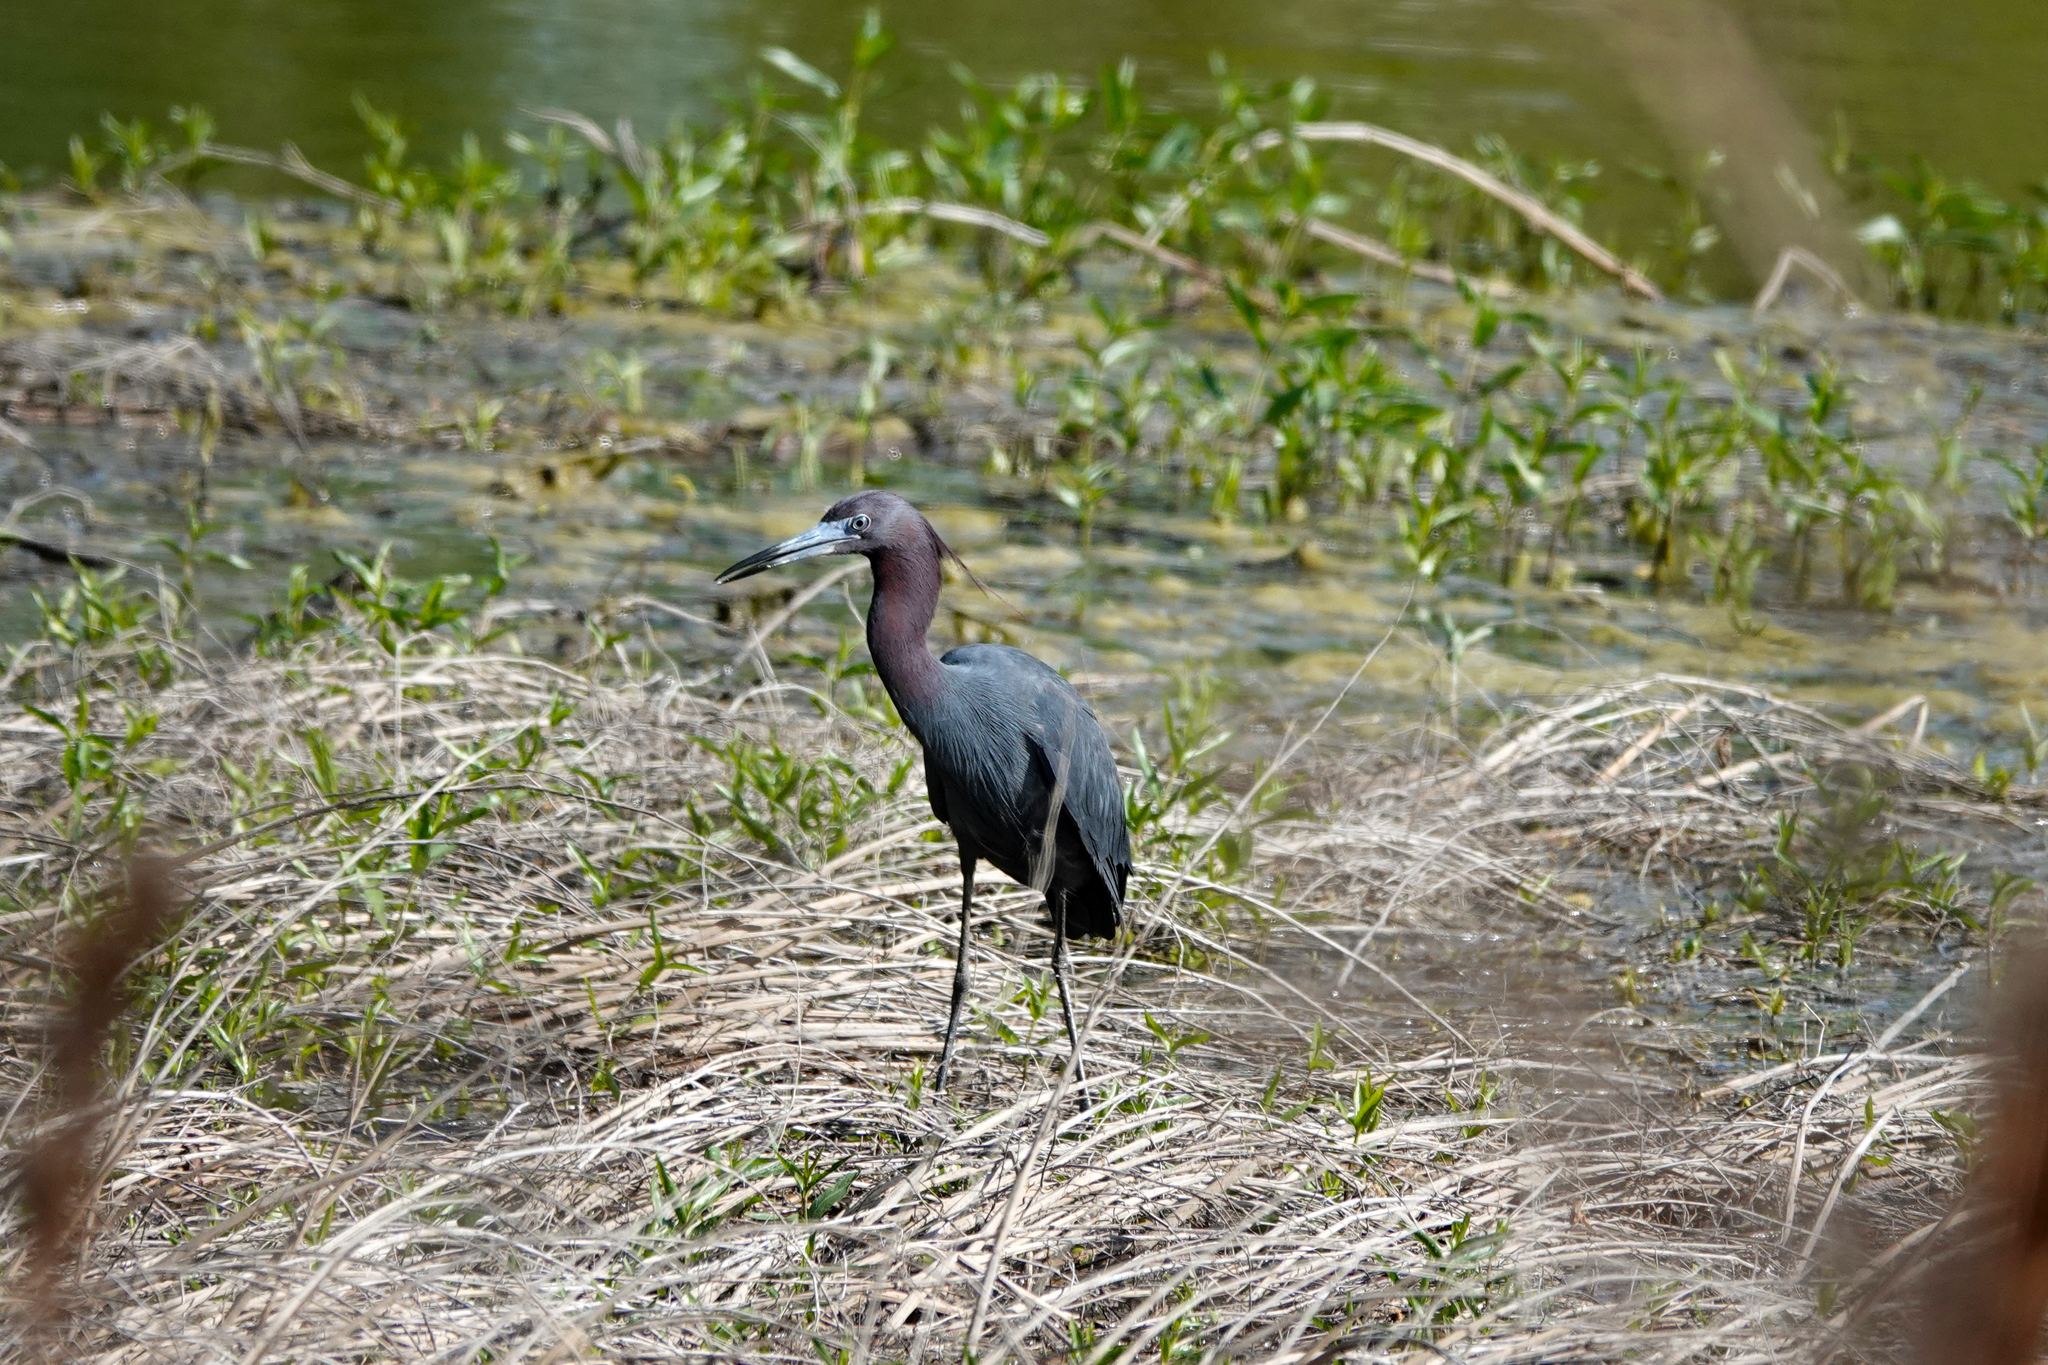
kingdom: Animalia
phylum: Chordata
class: Aves
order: Pelecaniformes
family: Ardeidae
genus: Egretta
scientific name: Egretta caerulea
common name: Little blue heron
